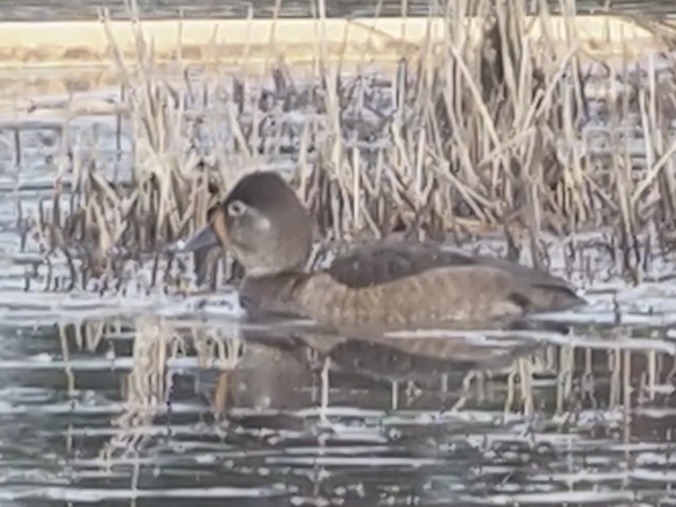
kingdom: Animalia
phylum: Chordata
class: Aves
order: Anseriformes
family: Anatidae
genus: Aythya
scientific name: Aythya collaris
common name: Ring-necked duck
